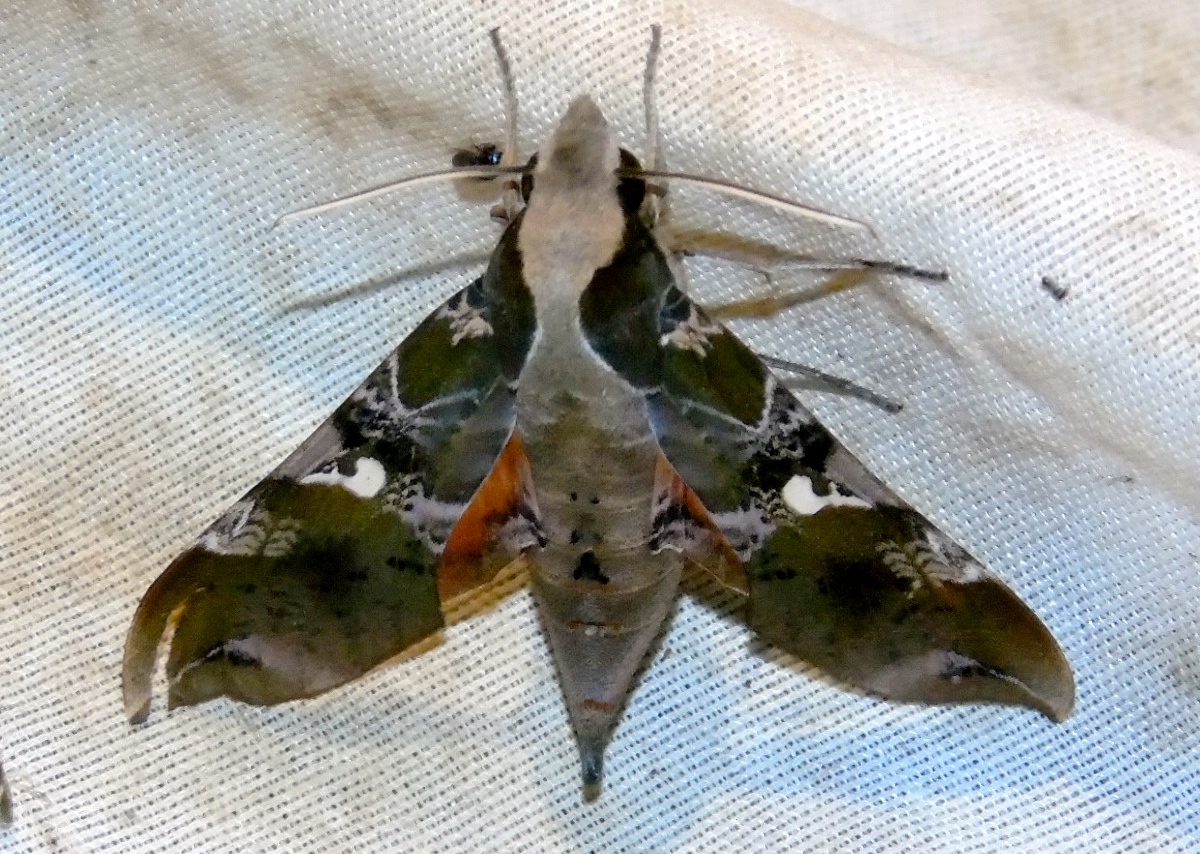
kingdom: Animalia
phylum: Arthropoda
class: Insecta
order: Lepidoptera
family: Sphingidae
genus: Callionima
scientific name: Callionima falcifera
